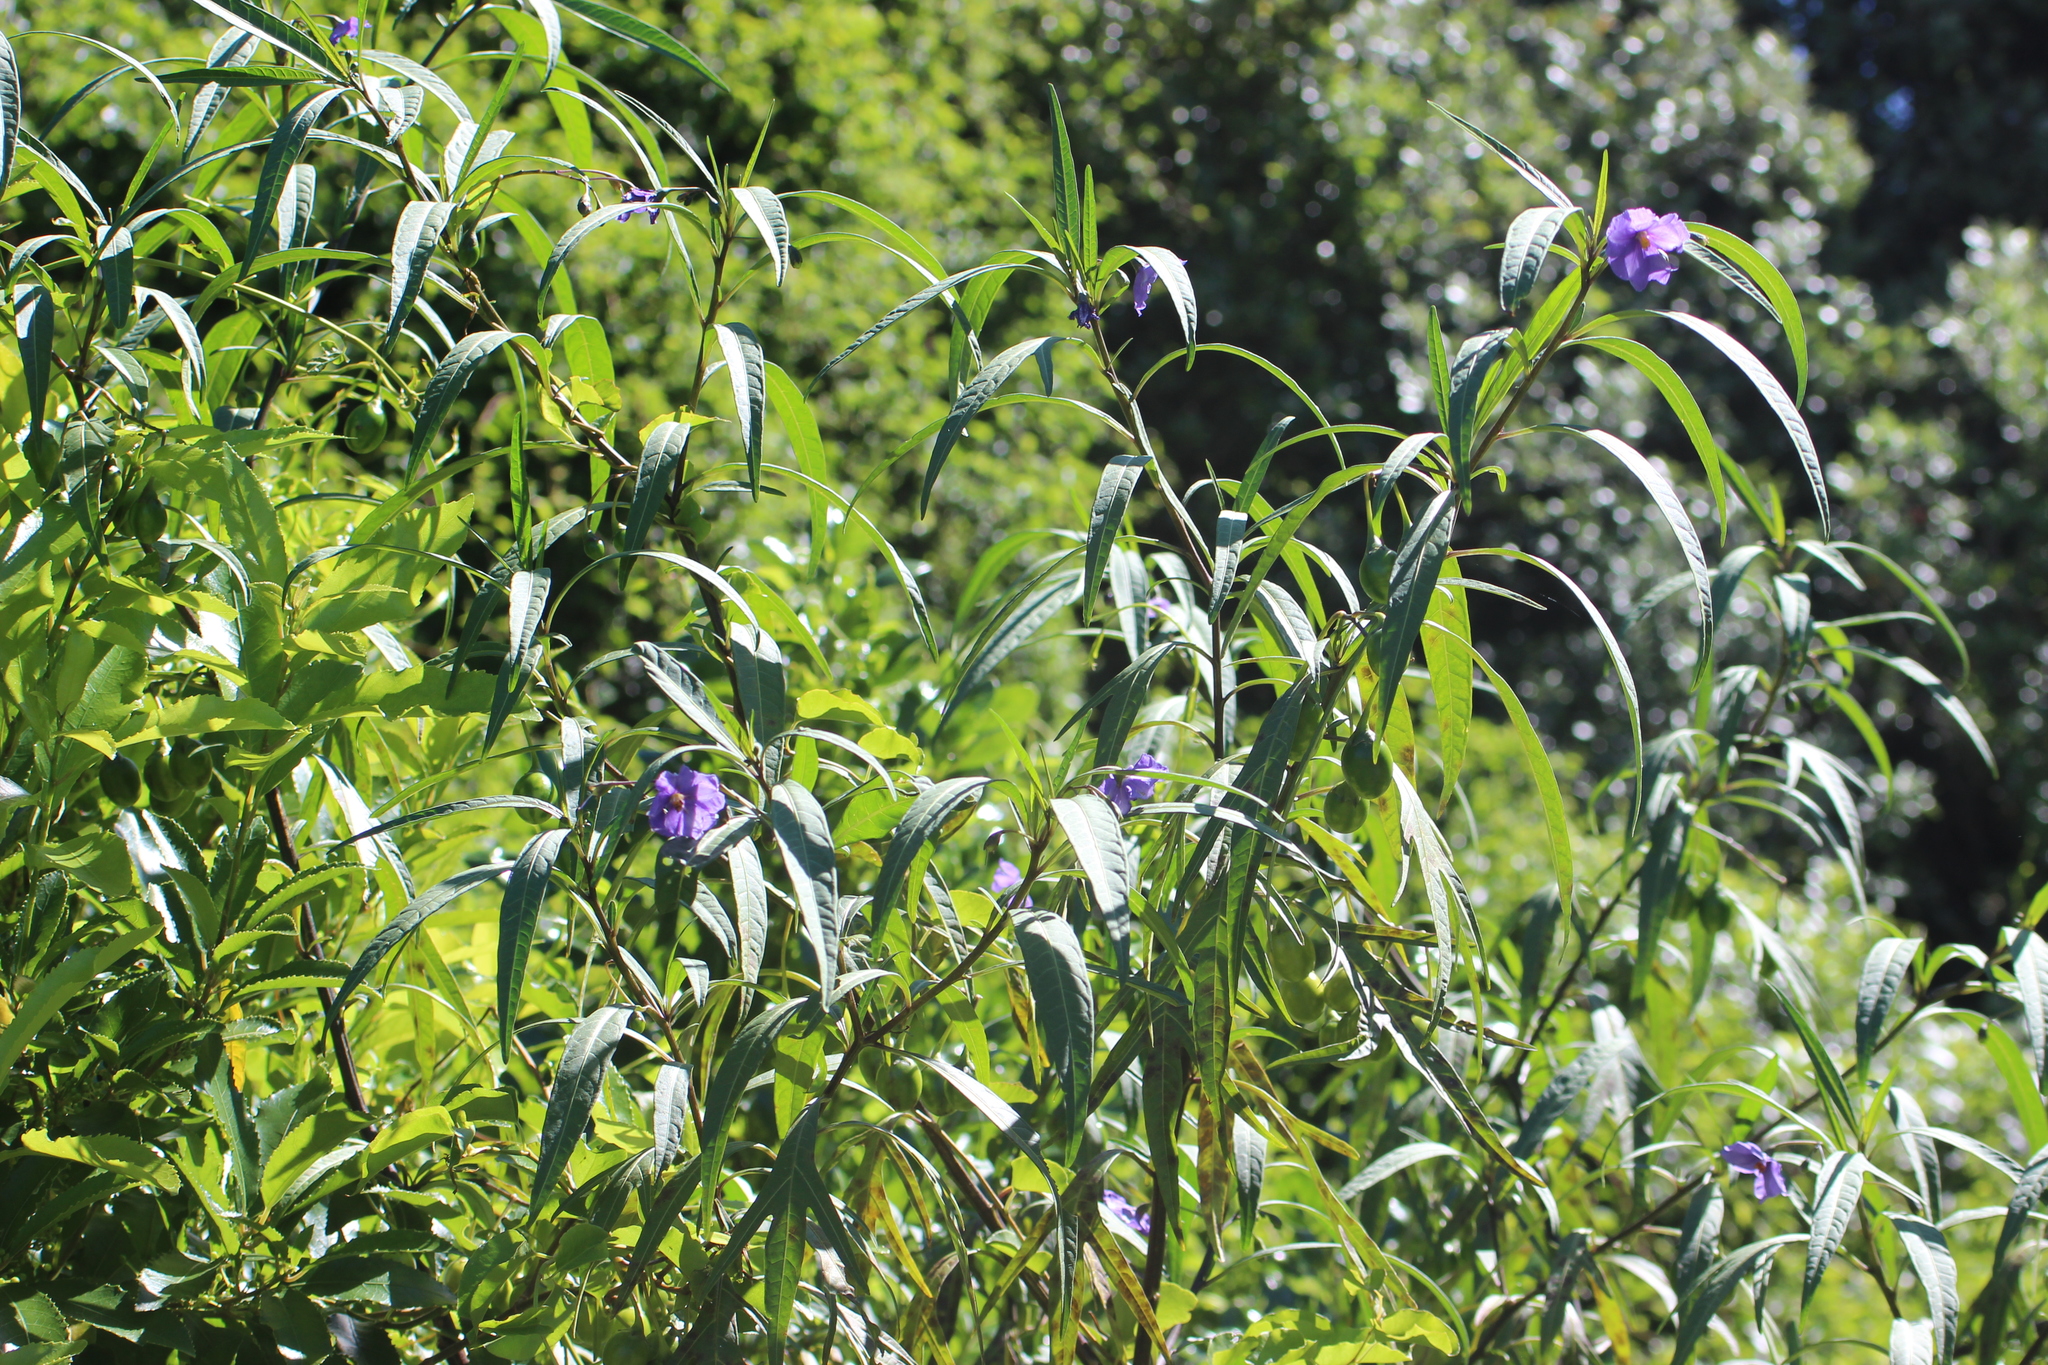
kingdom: Plantae
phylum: Tracheophyta
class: Magnoliopsida
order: Solanales
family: Solanaceae
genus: Solanum
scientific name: Solanum laciniatum
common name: Kangaroo-apple
